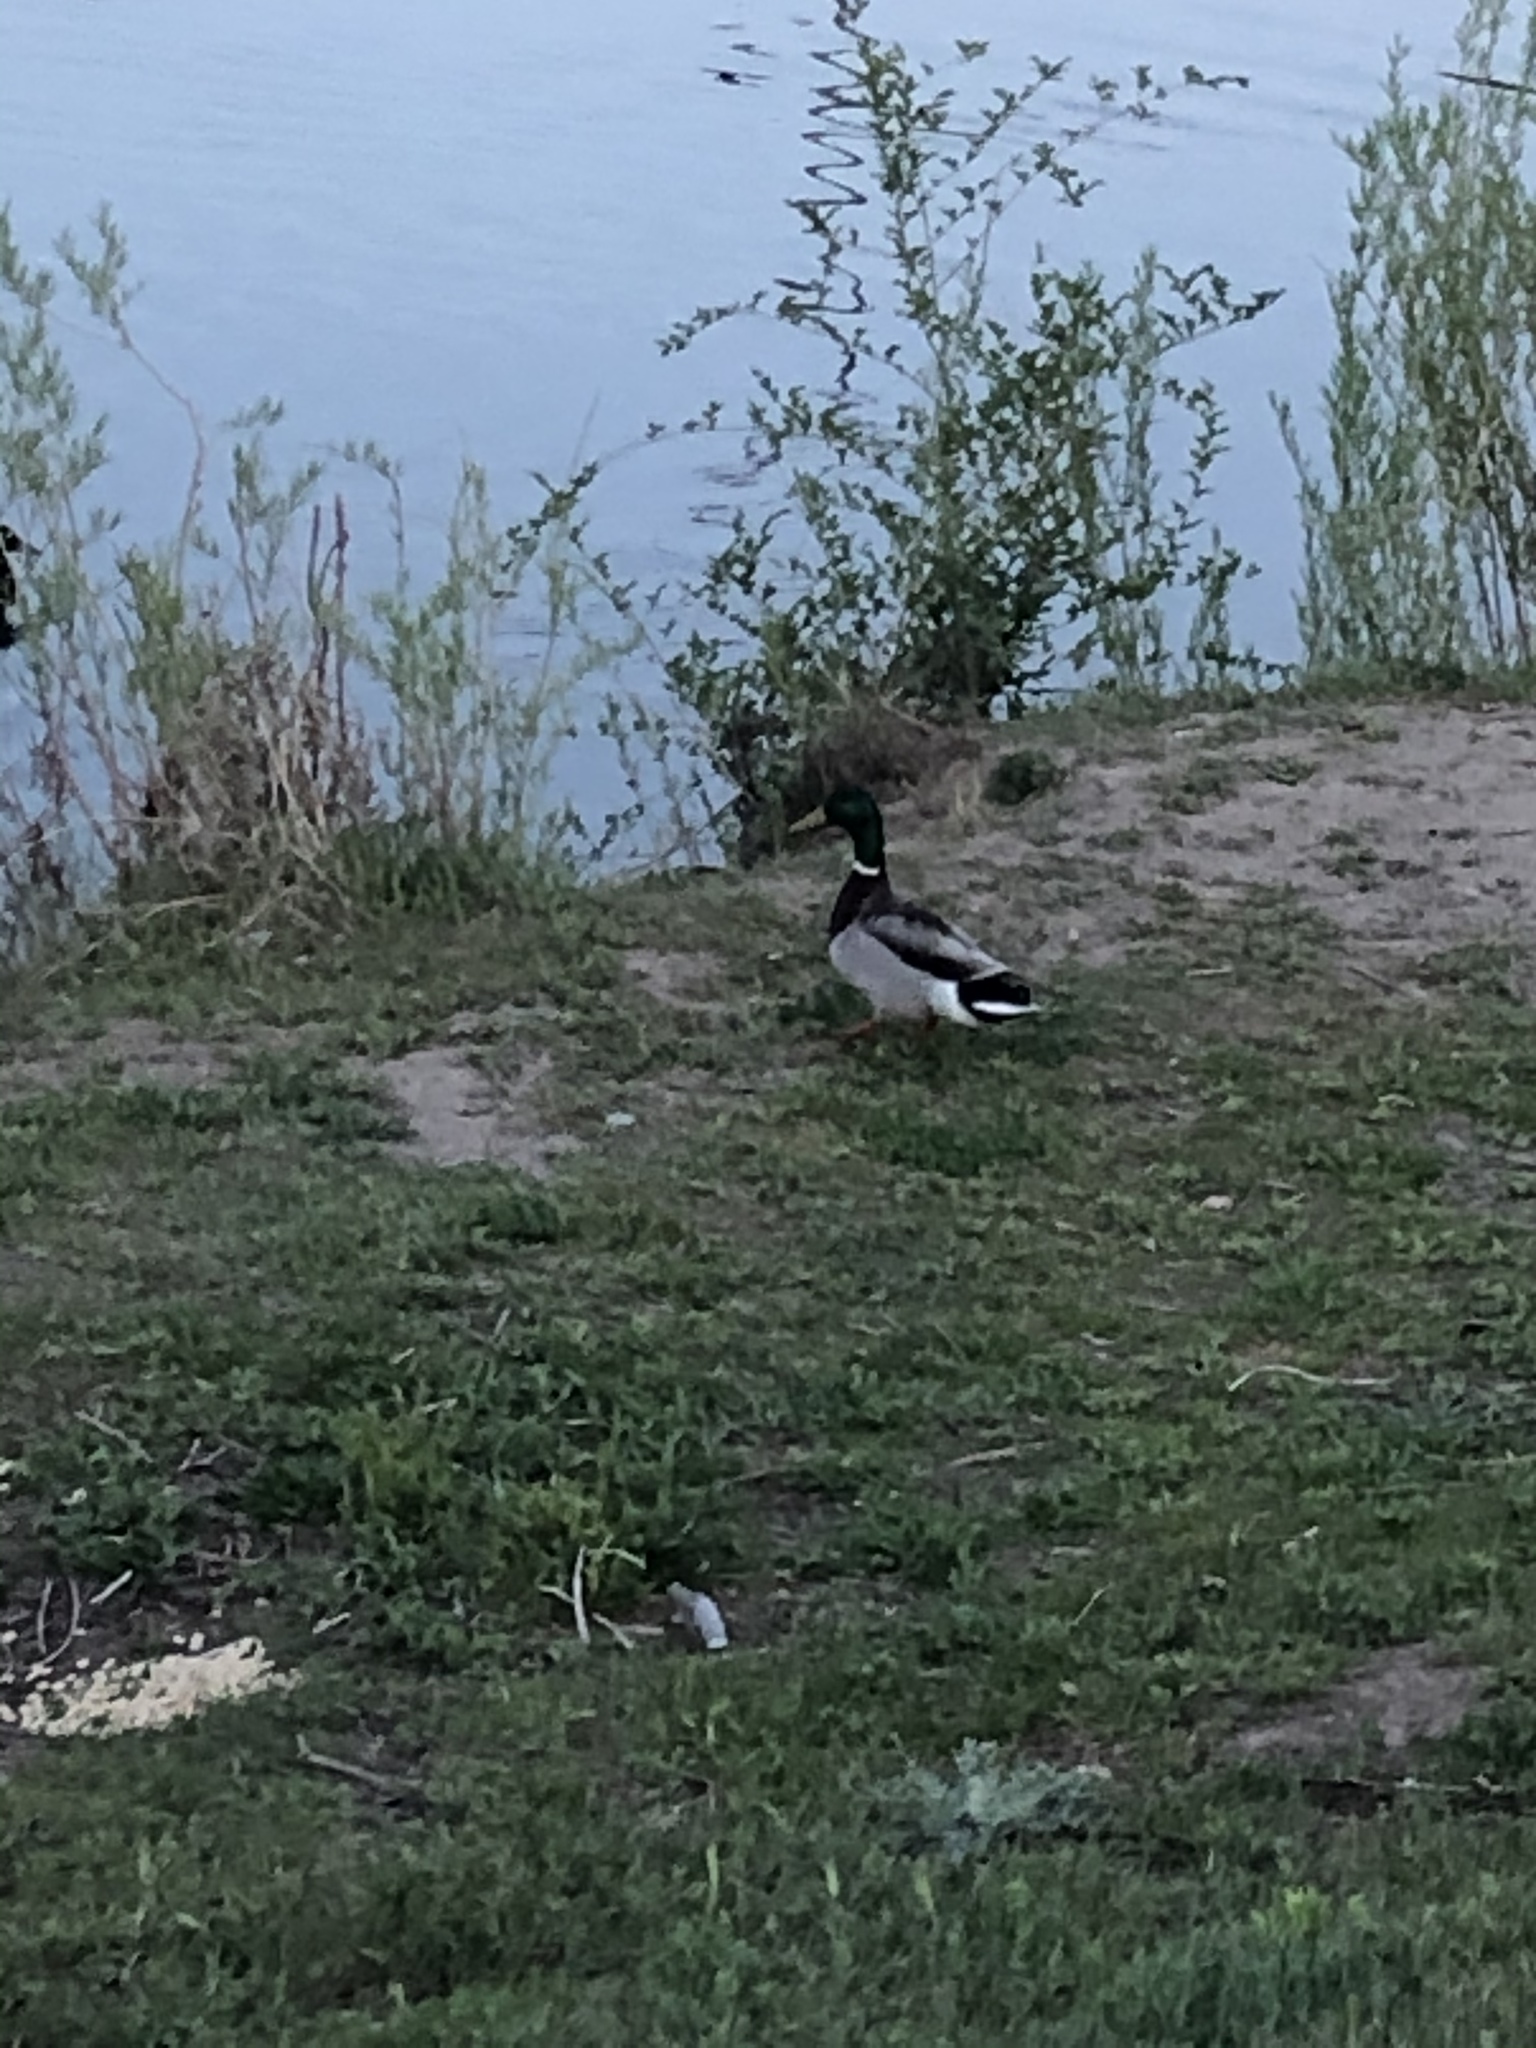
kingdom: Animalia
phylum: Chordata
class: Aves
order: Anseriformes
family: Anatidae
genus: Anas
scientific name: Anas platyrhynchos
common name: Mallard
